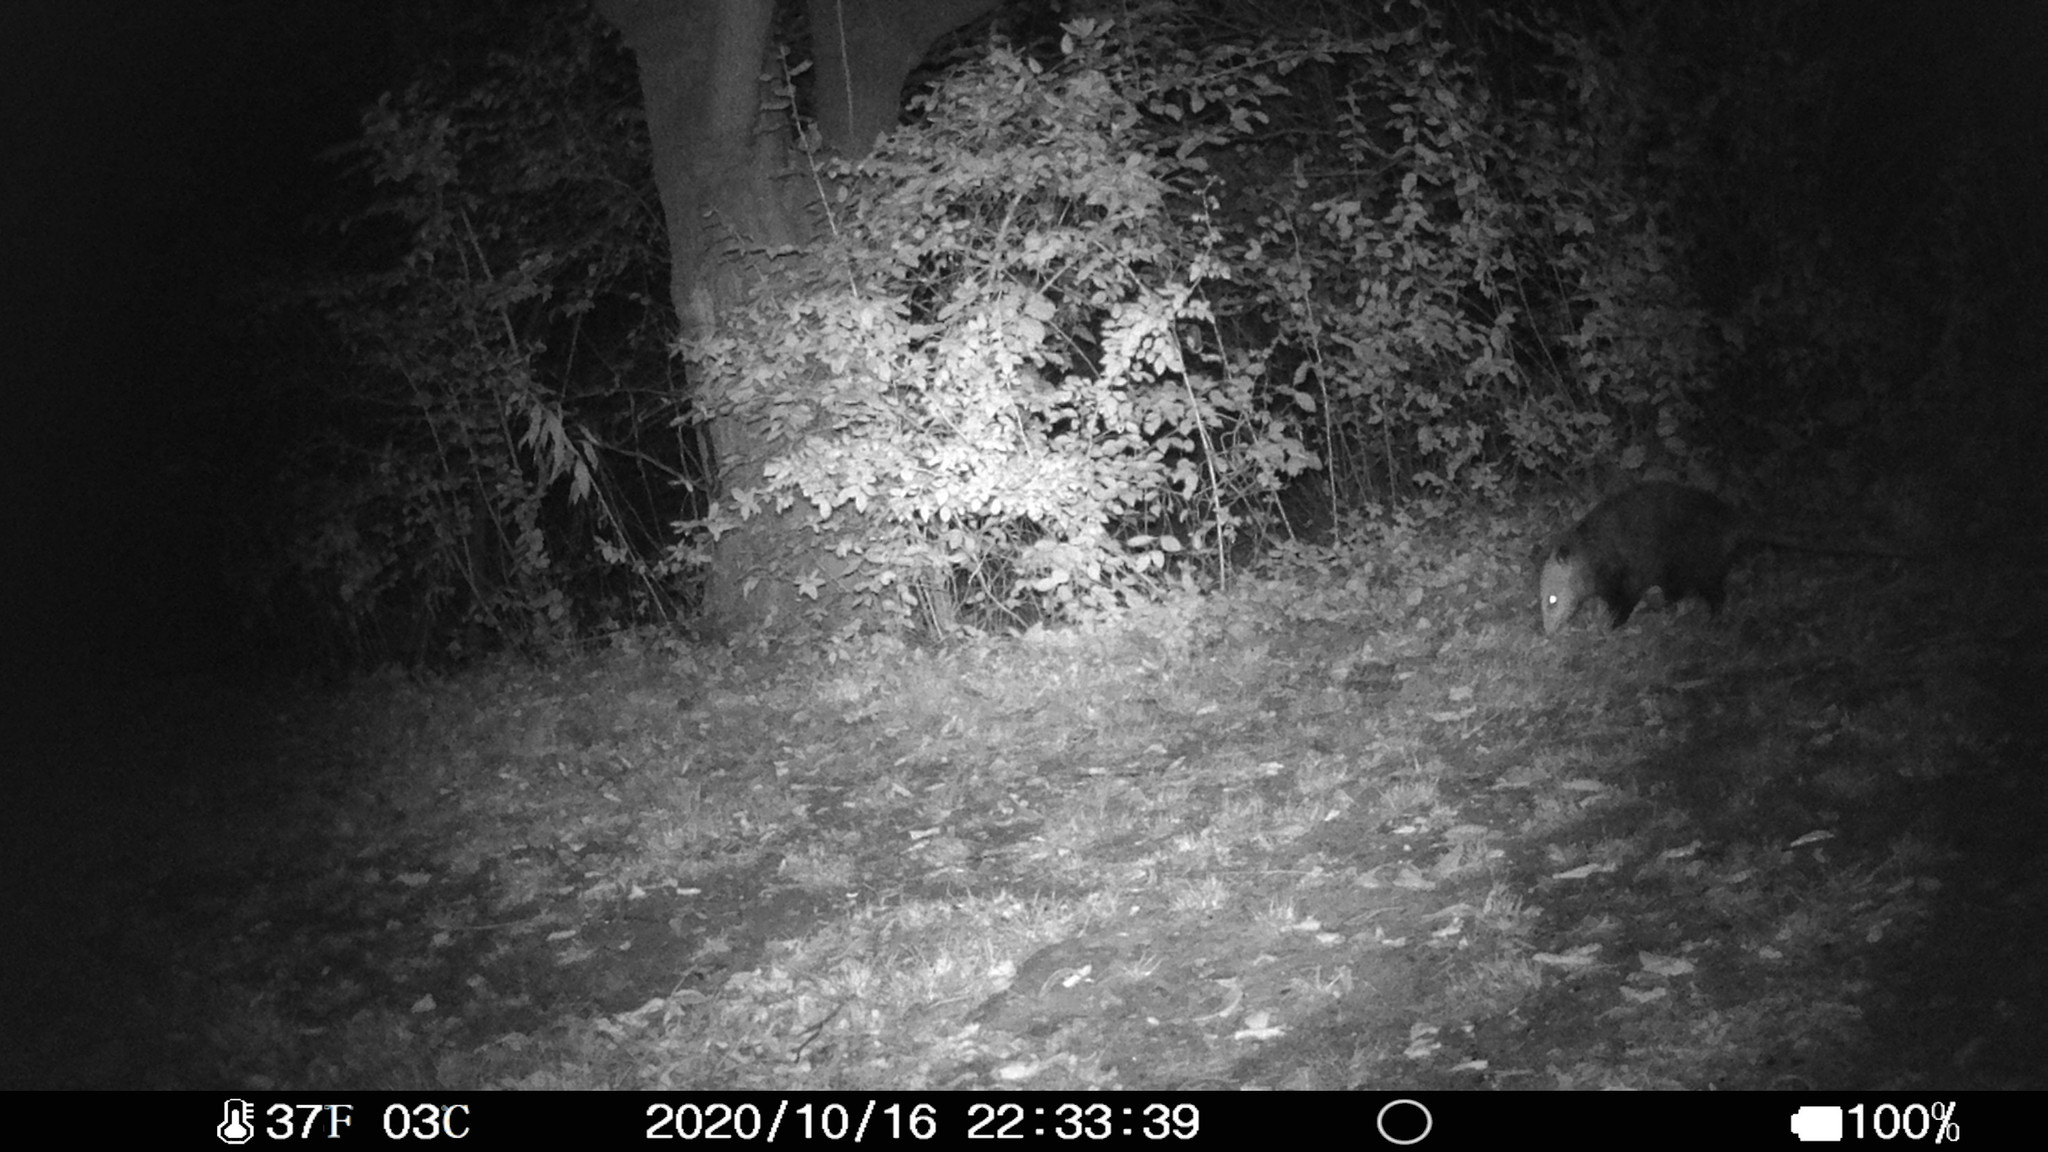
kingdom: Animalia
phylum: Chordata
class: Mammalia
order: Didelphimorphia
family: Didelphidae
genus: Didelphis
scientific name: Didelphis virginiana
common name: Virginia opossum
